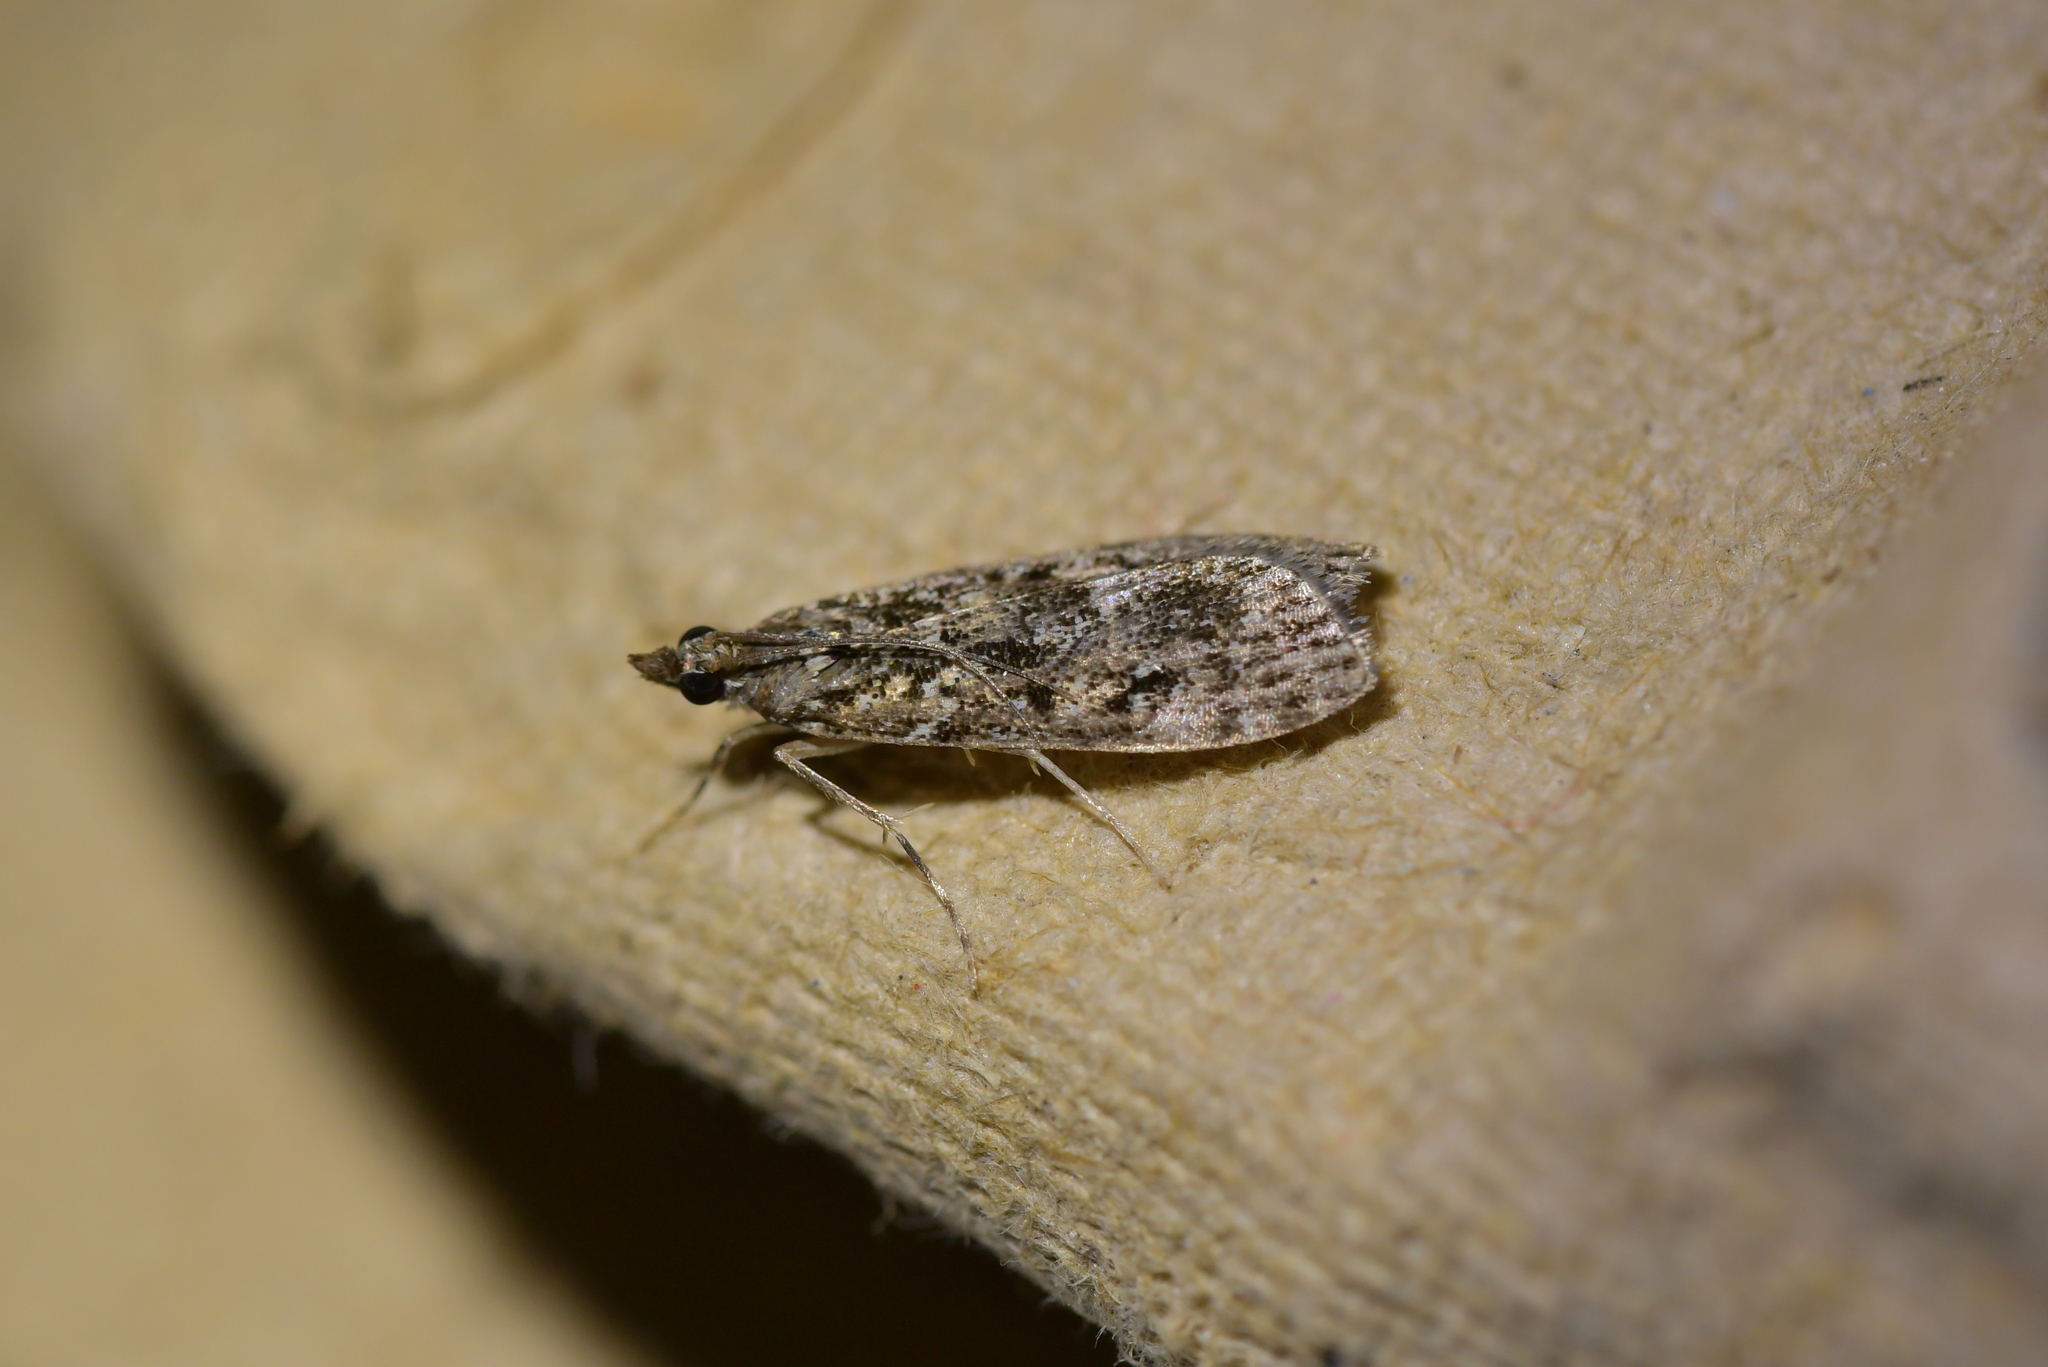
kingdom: Animalia
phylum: Arthropoda
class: Insecta
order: Lepidoptera
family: Crambidae
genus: Eudonia
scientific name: Eudonia philerga
